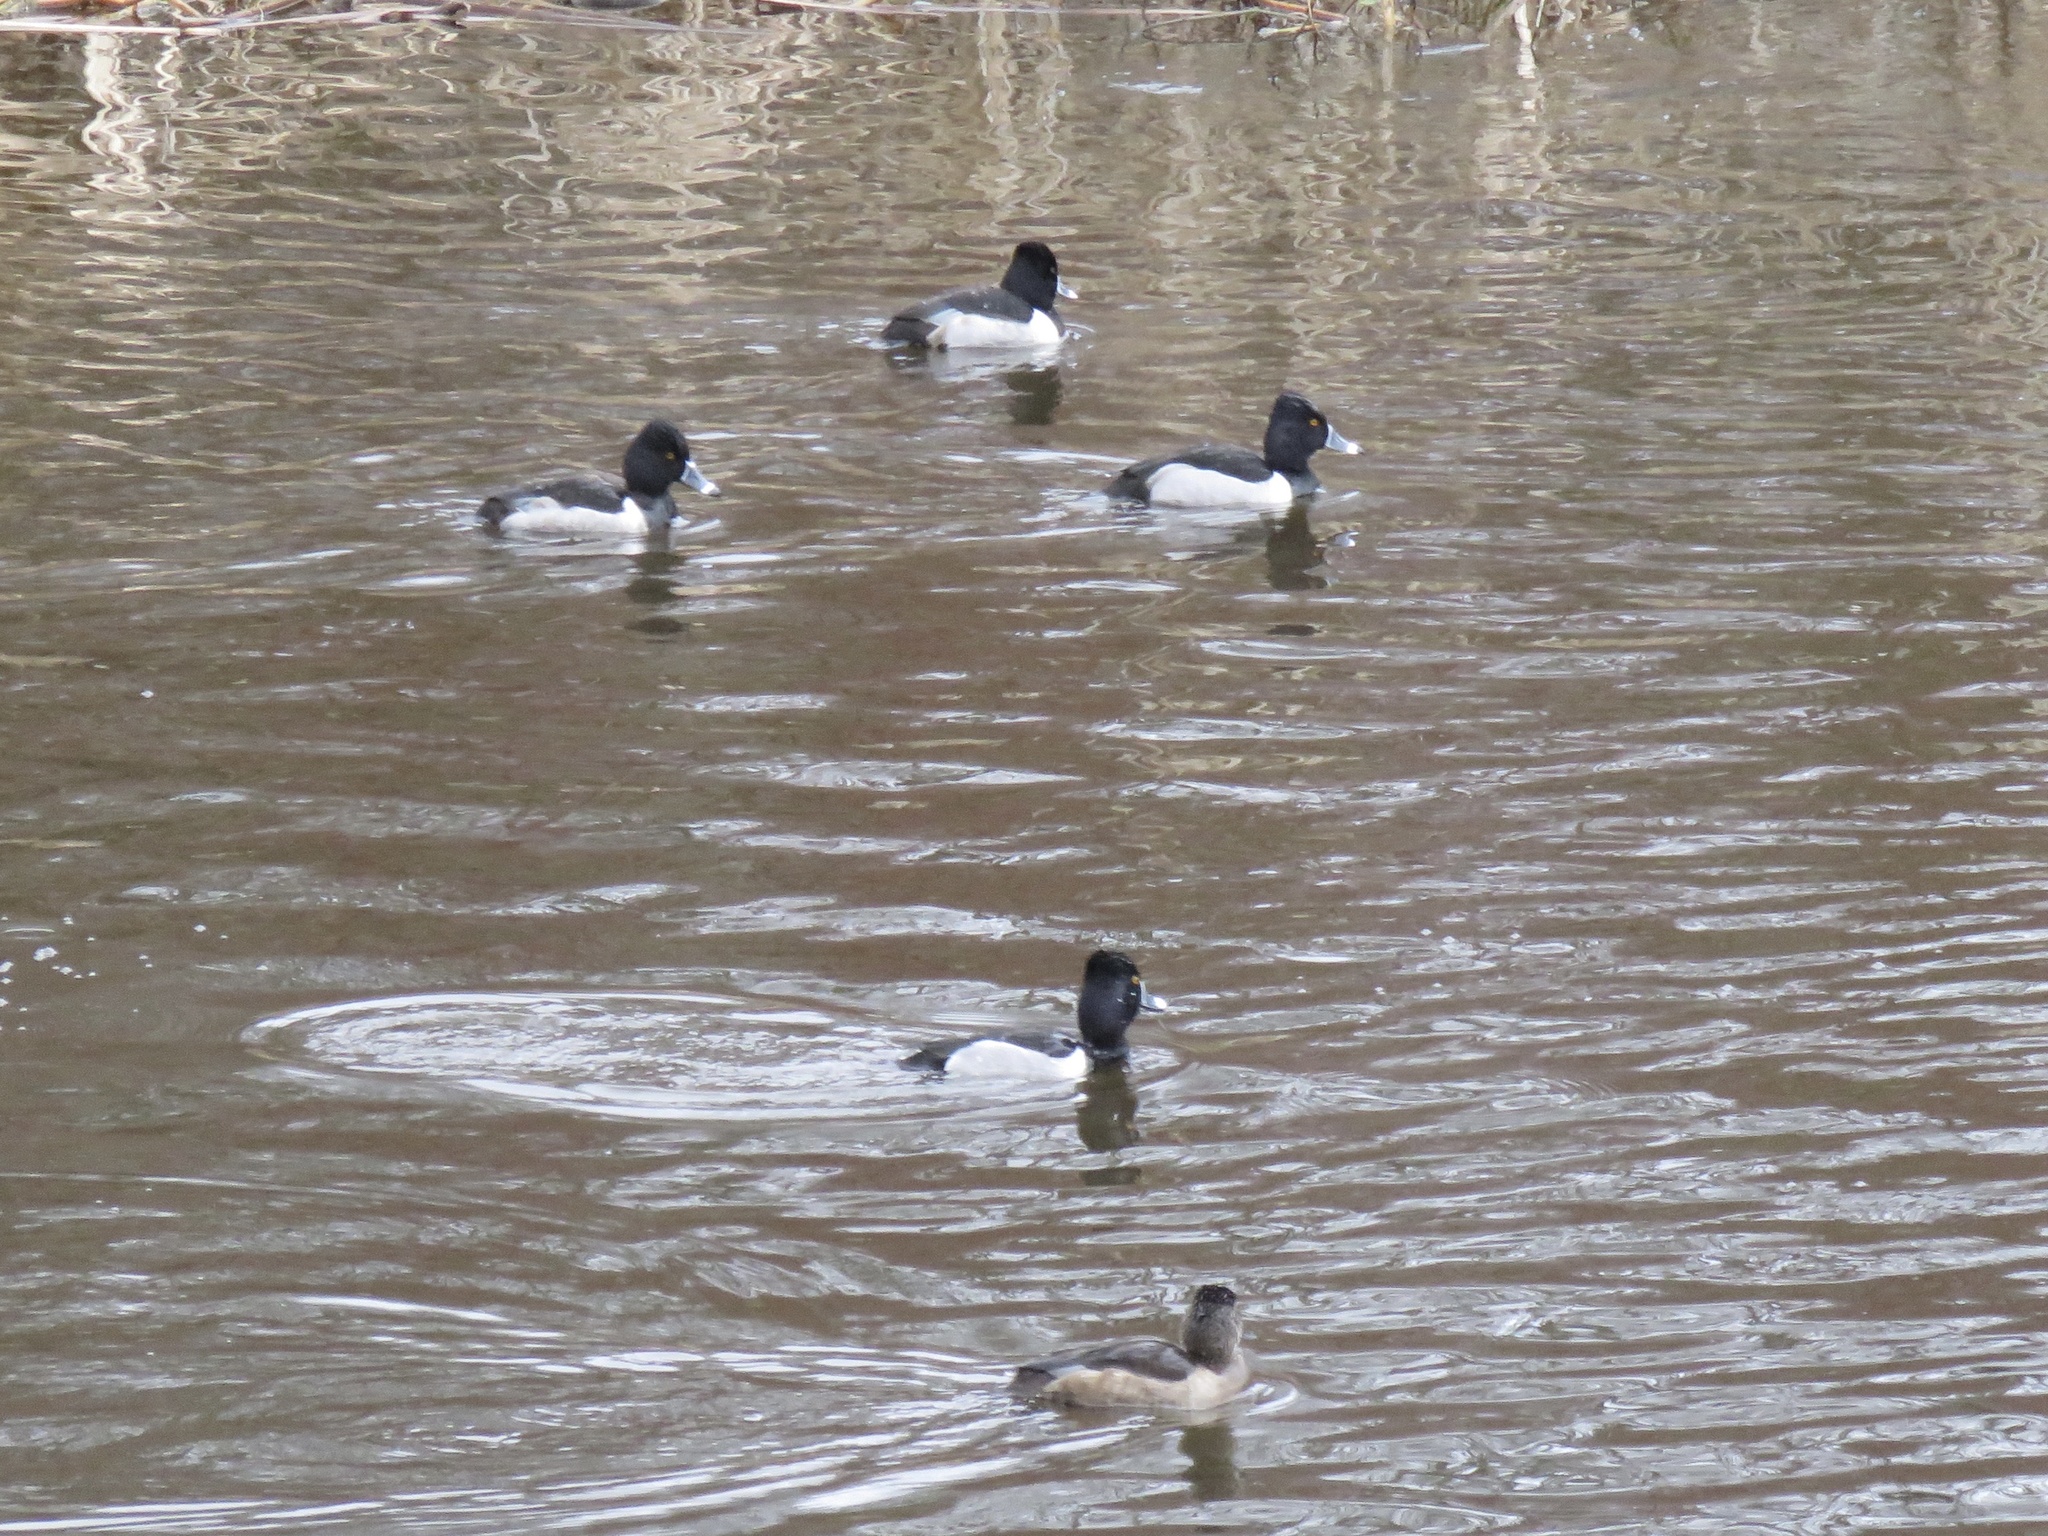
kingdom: Animalia
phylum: Chordata
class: Aves
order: Anseriformes
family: Anatidae
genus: Aythya
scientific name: Aythya collaris
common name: Ring-necked duck
